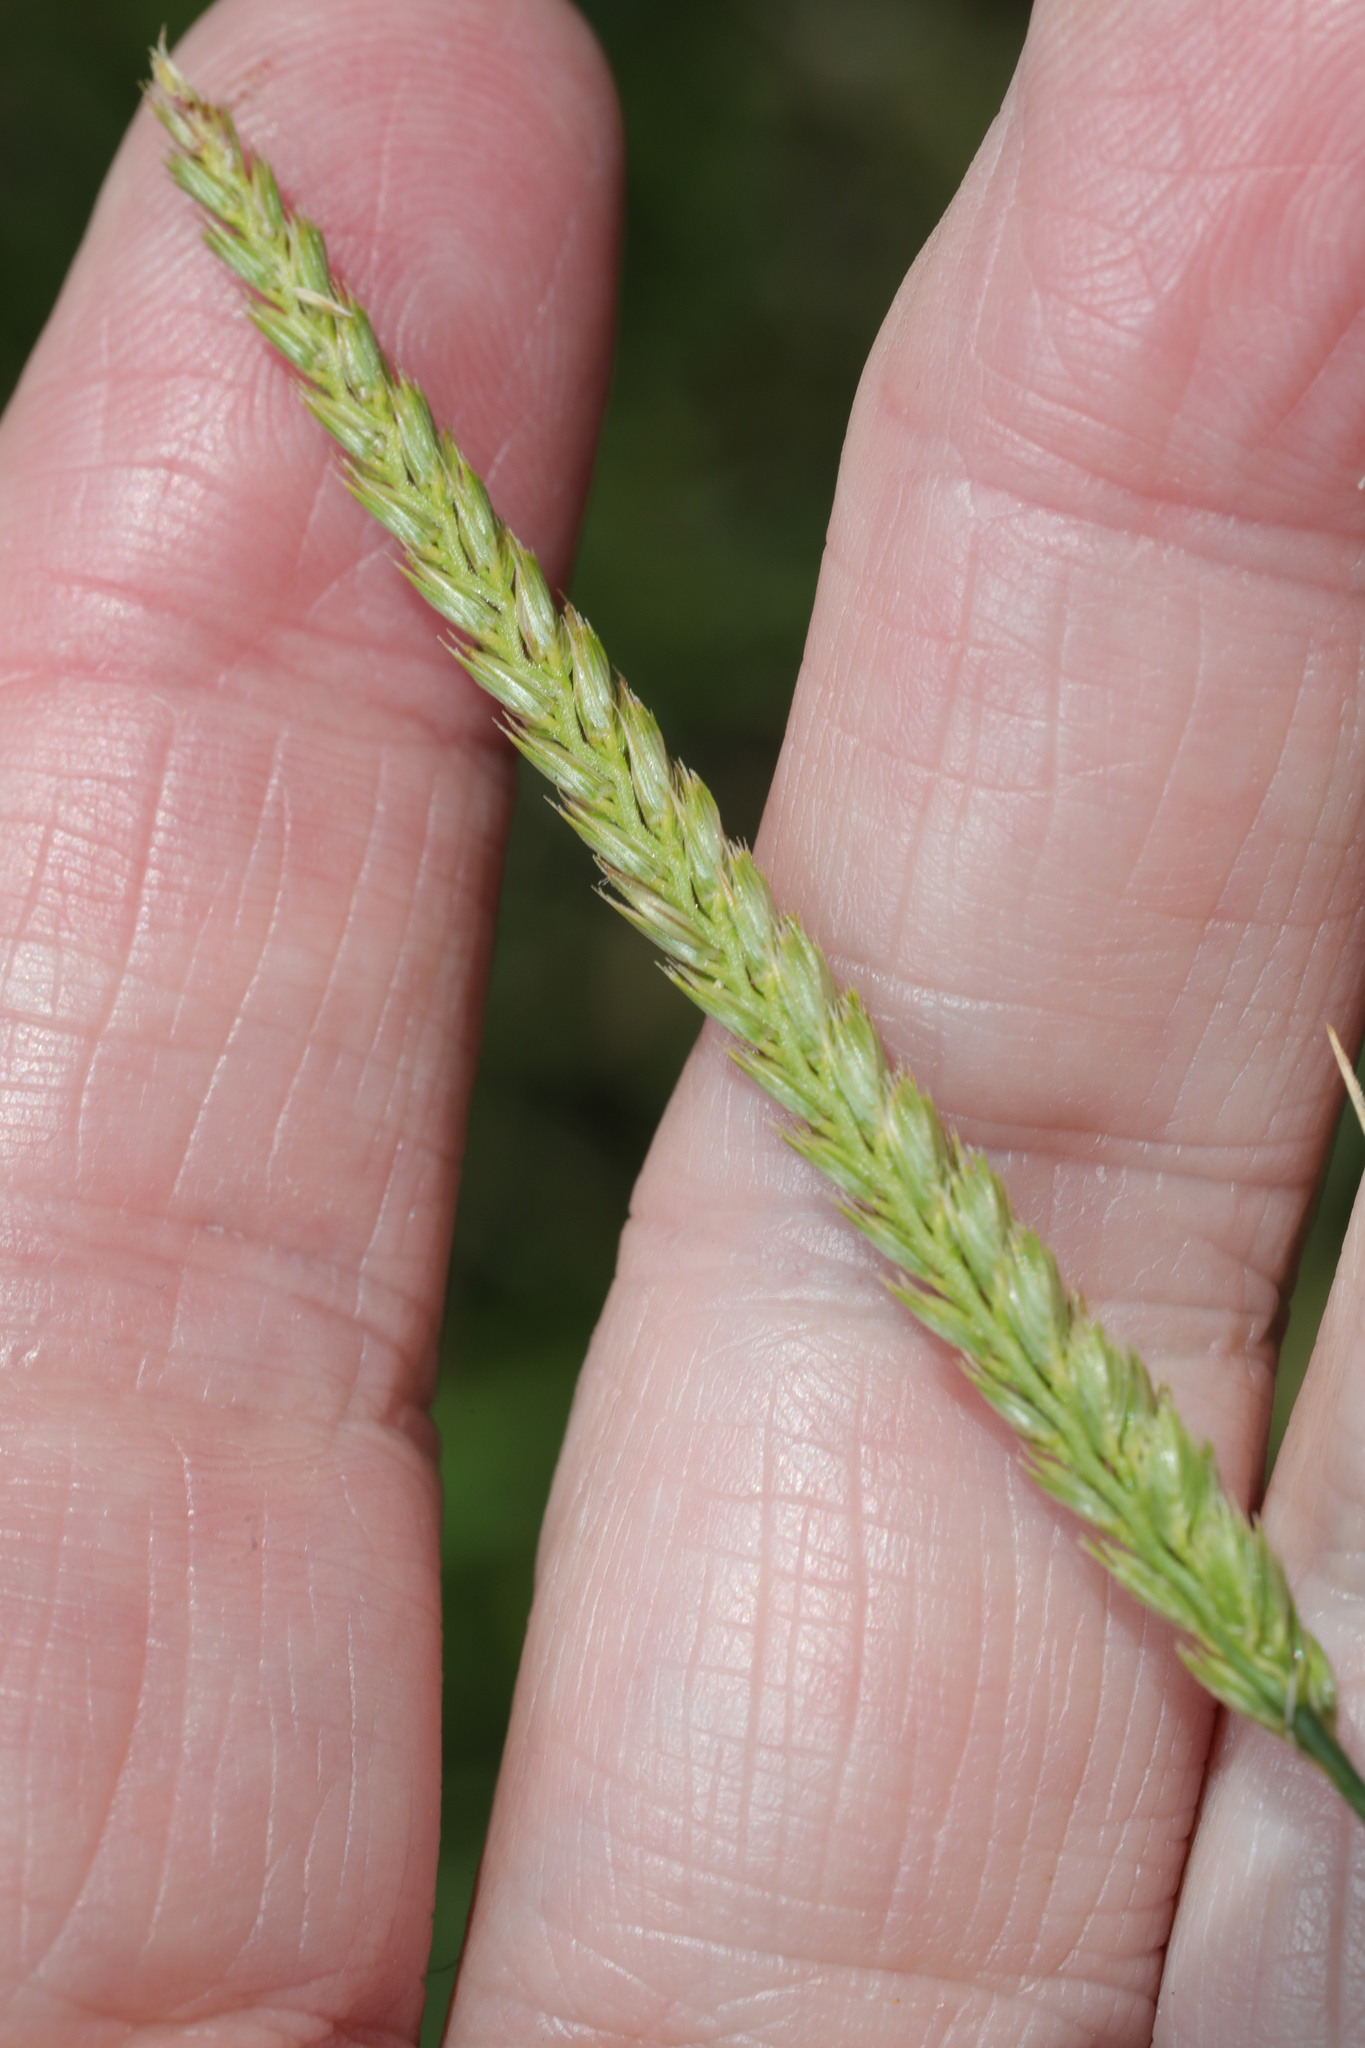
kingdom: Plantae
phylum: Tracheophyta
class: Liliopsida
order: Poales
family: Poaceae
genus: Cynosurus
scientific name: Cynosurus cristatus
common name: Crested dog's-tail
